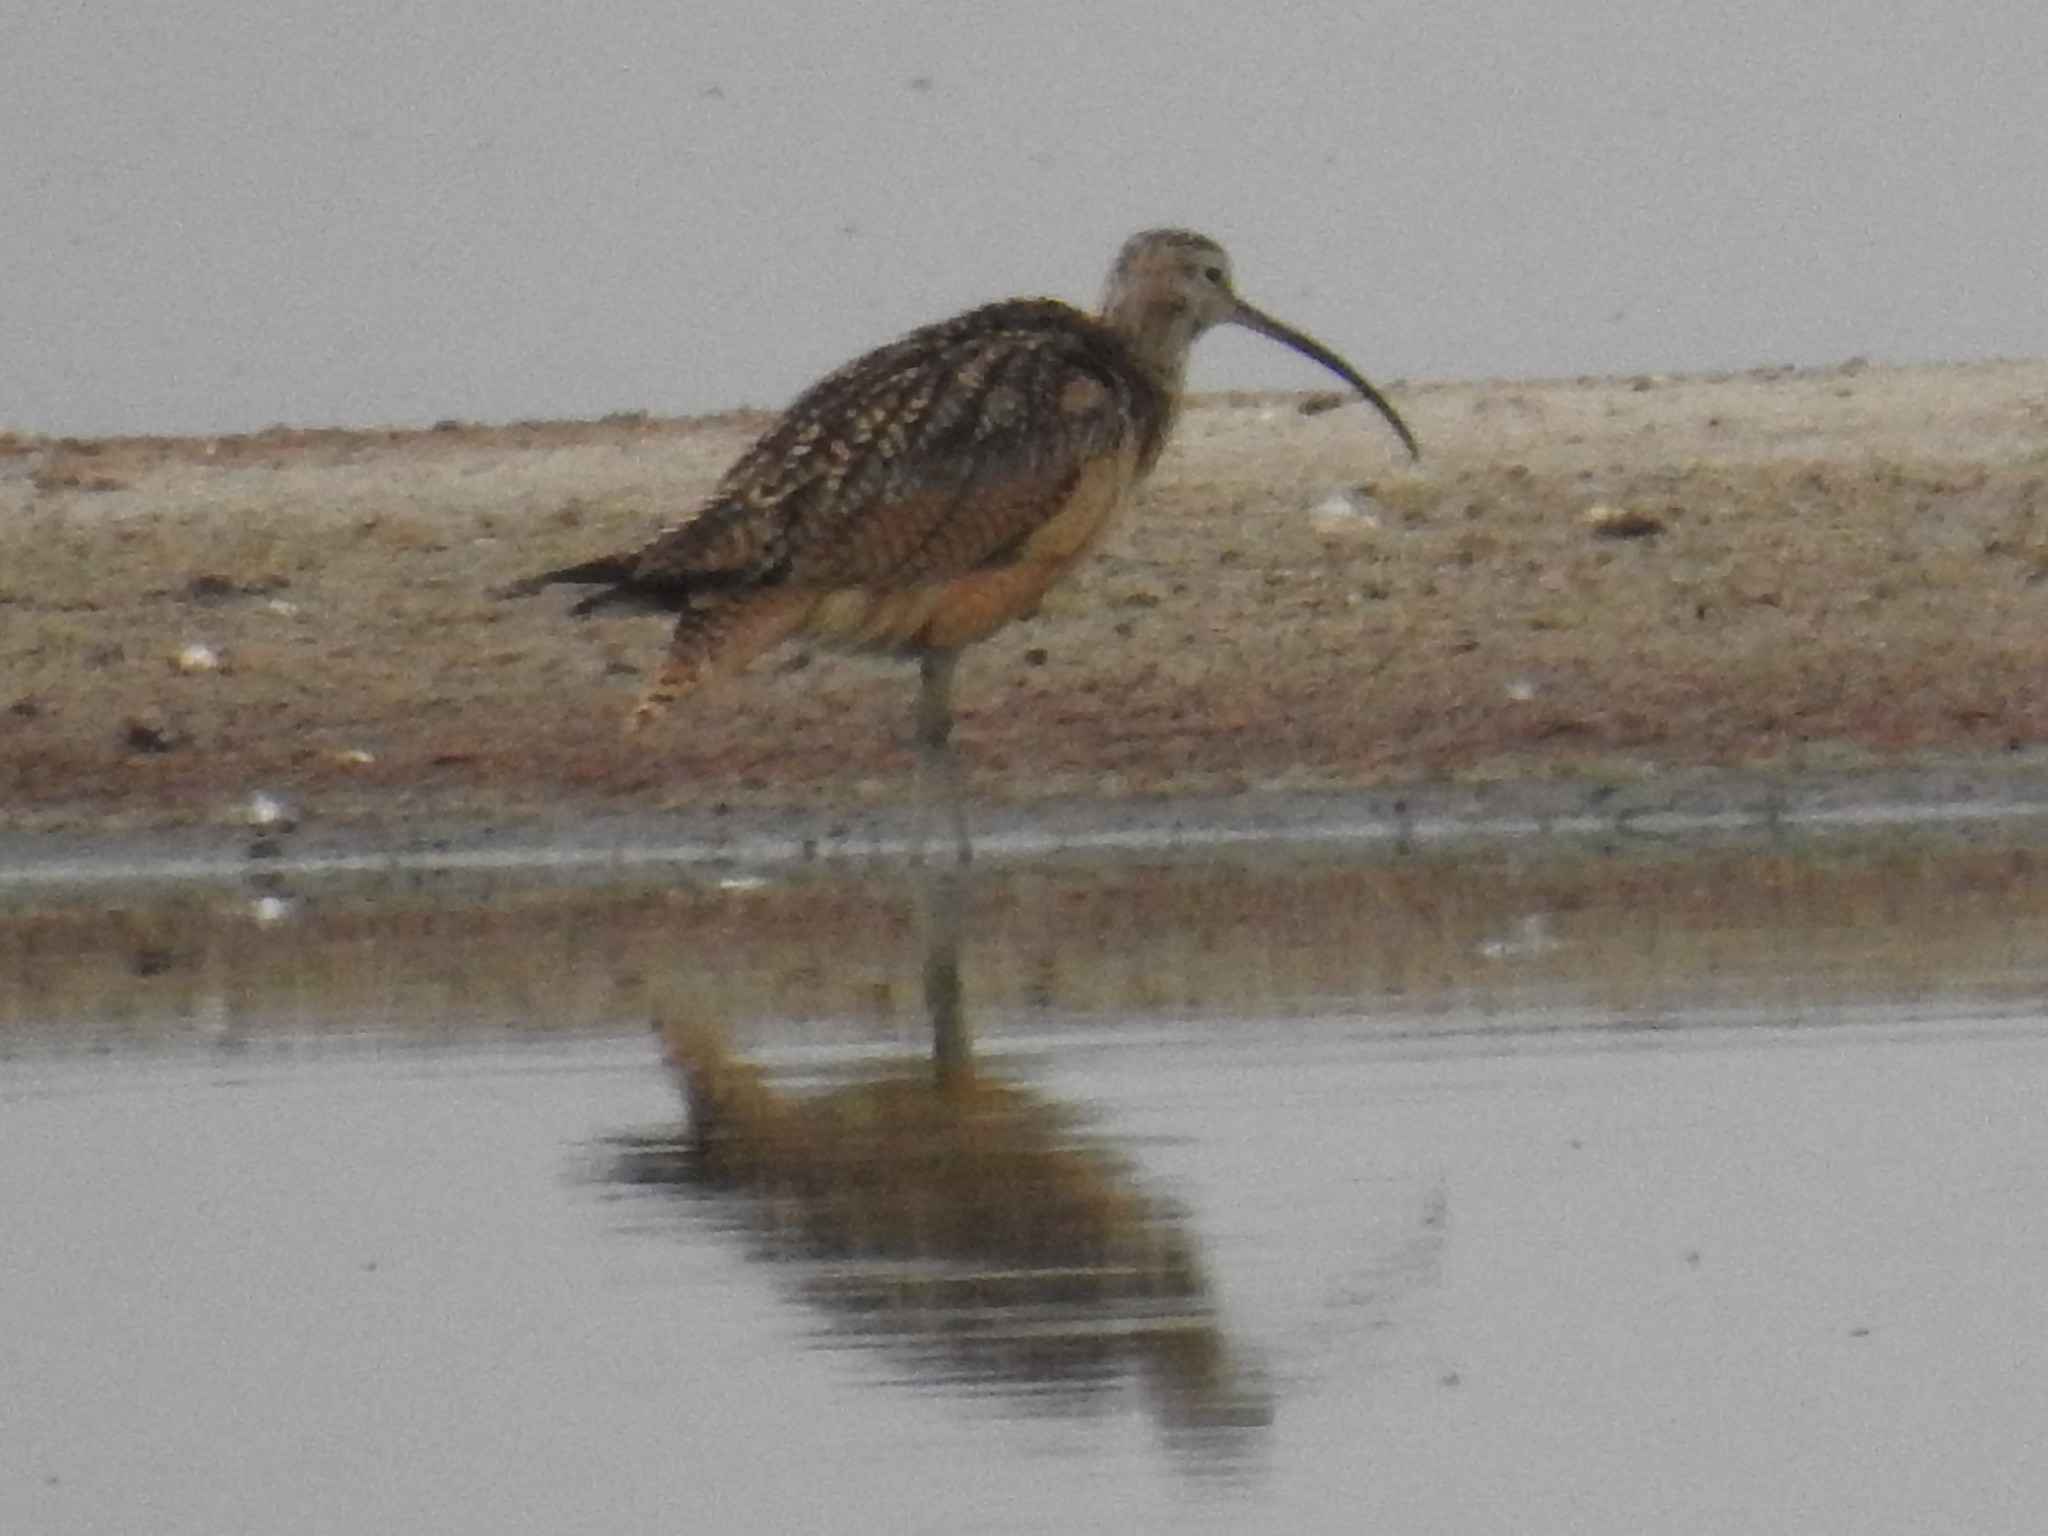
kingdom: Animalia
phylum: Chordata
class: Aves
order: Charadriiformes
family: Scolopacidae
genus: Numenius
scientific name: Numenius americanus
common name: Long-billed curlew
